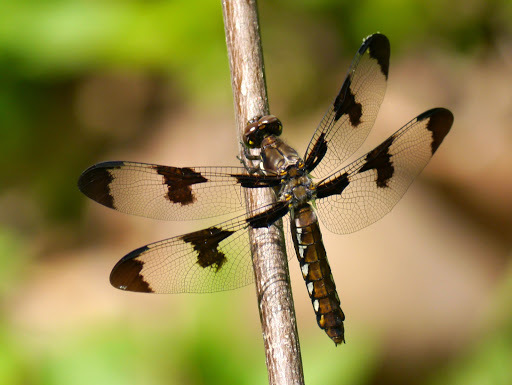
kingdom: Animalia
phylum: Arthropoda
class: Insecta
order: Odonata
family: Libellulidae
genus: Plathemis
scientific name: Plathemis lydia
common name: Common whitetail
